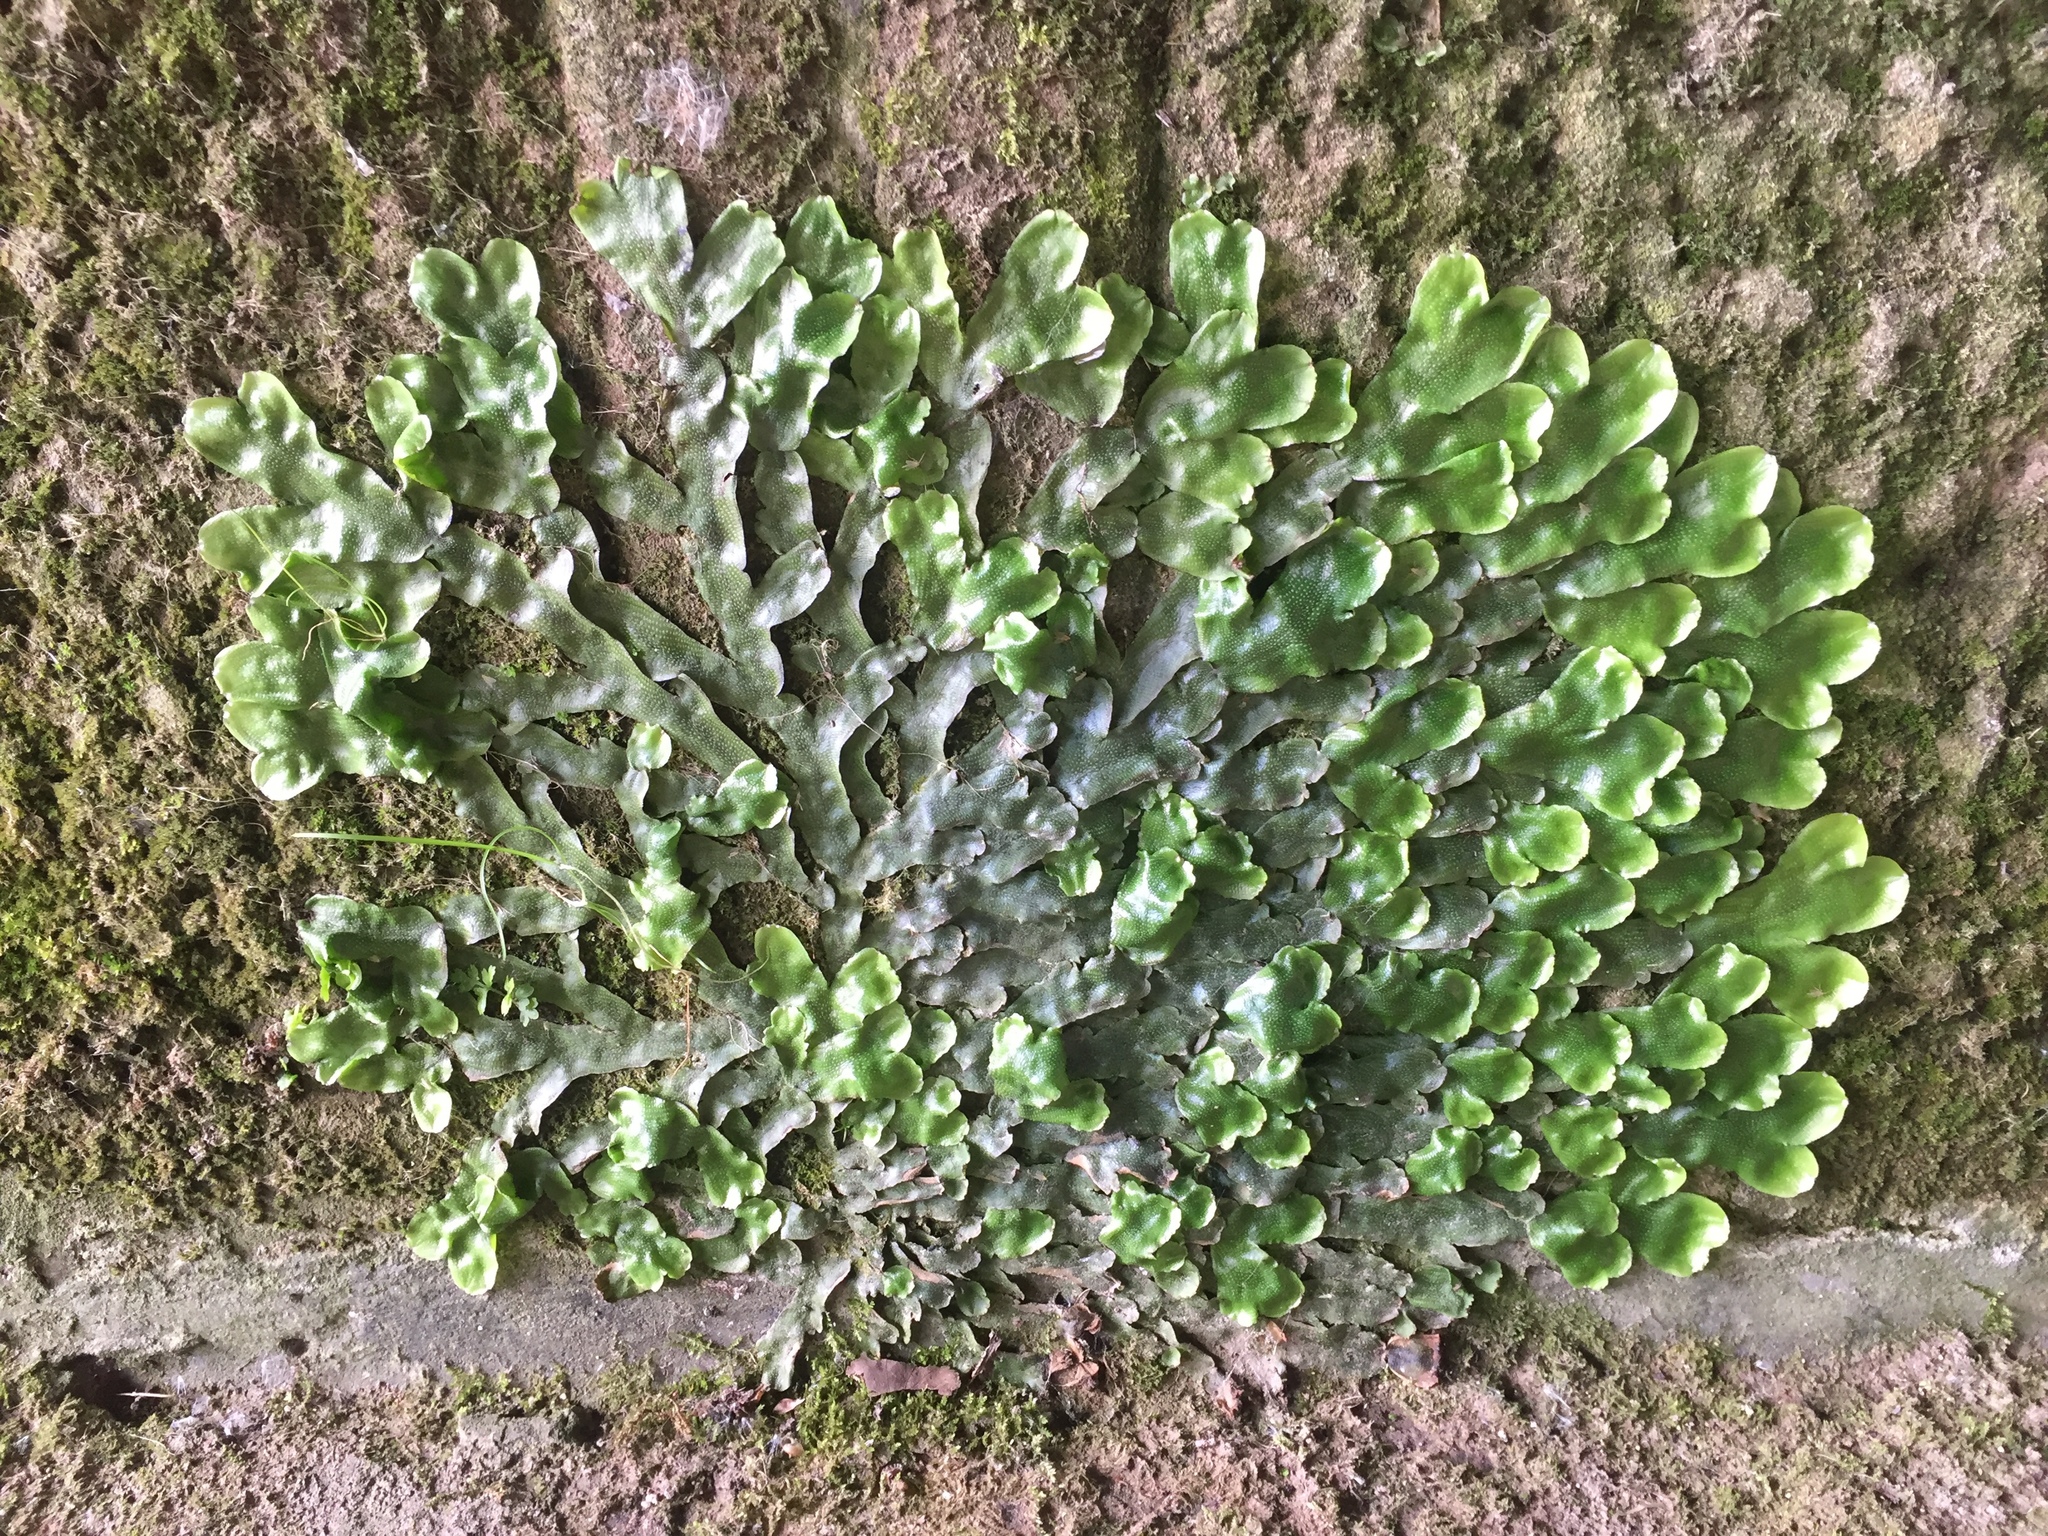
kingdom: Plantae
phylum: Marchantiophyta
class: Marchantiopsida
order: Marchantiales
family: Conocephalaceae
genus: Conocephalum
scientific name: Conocephalum conicum
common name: Great scented liverwort
